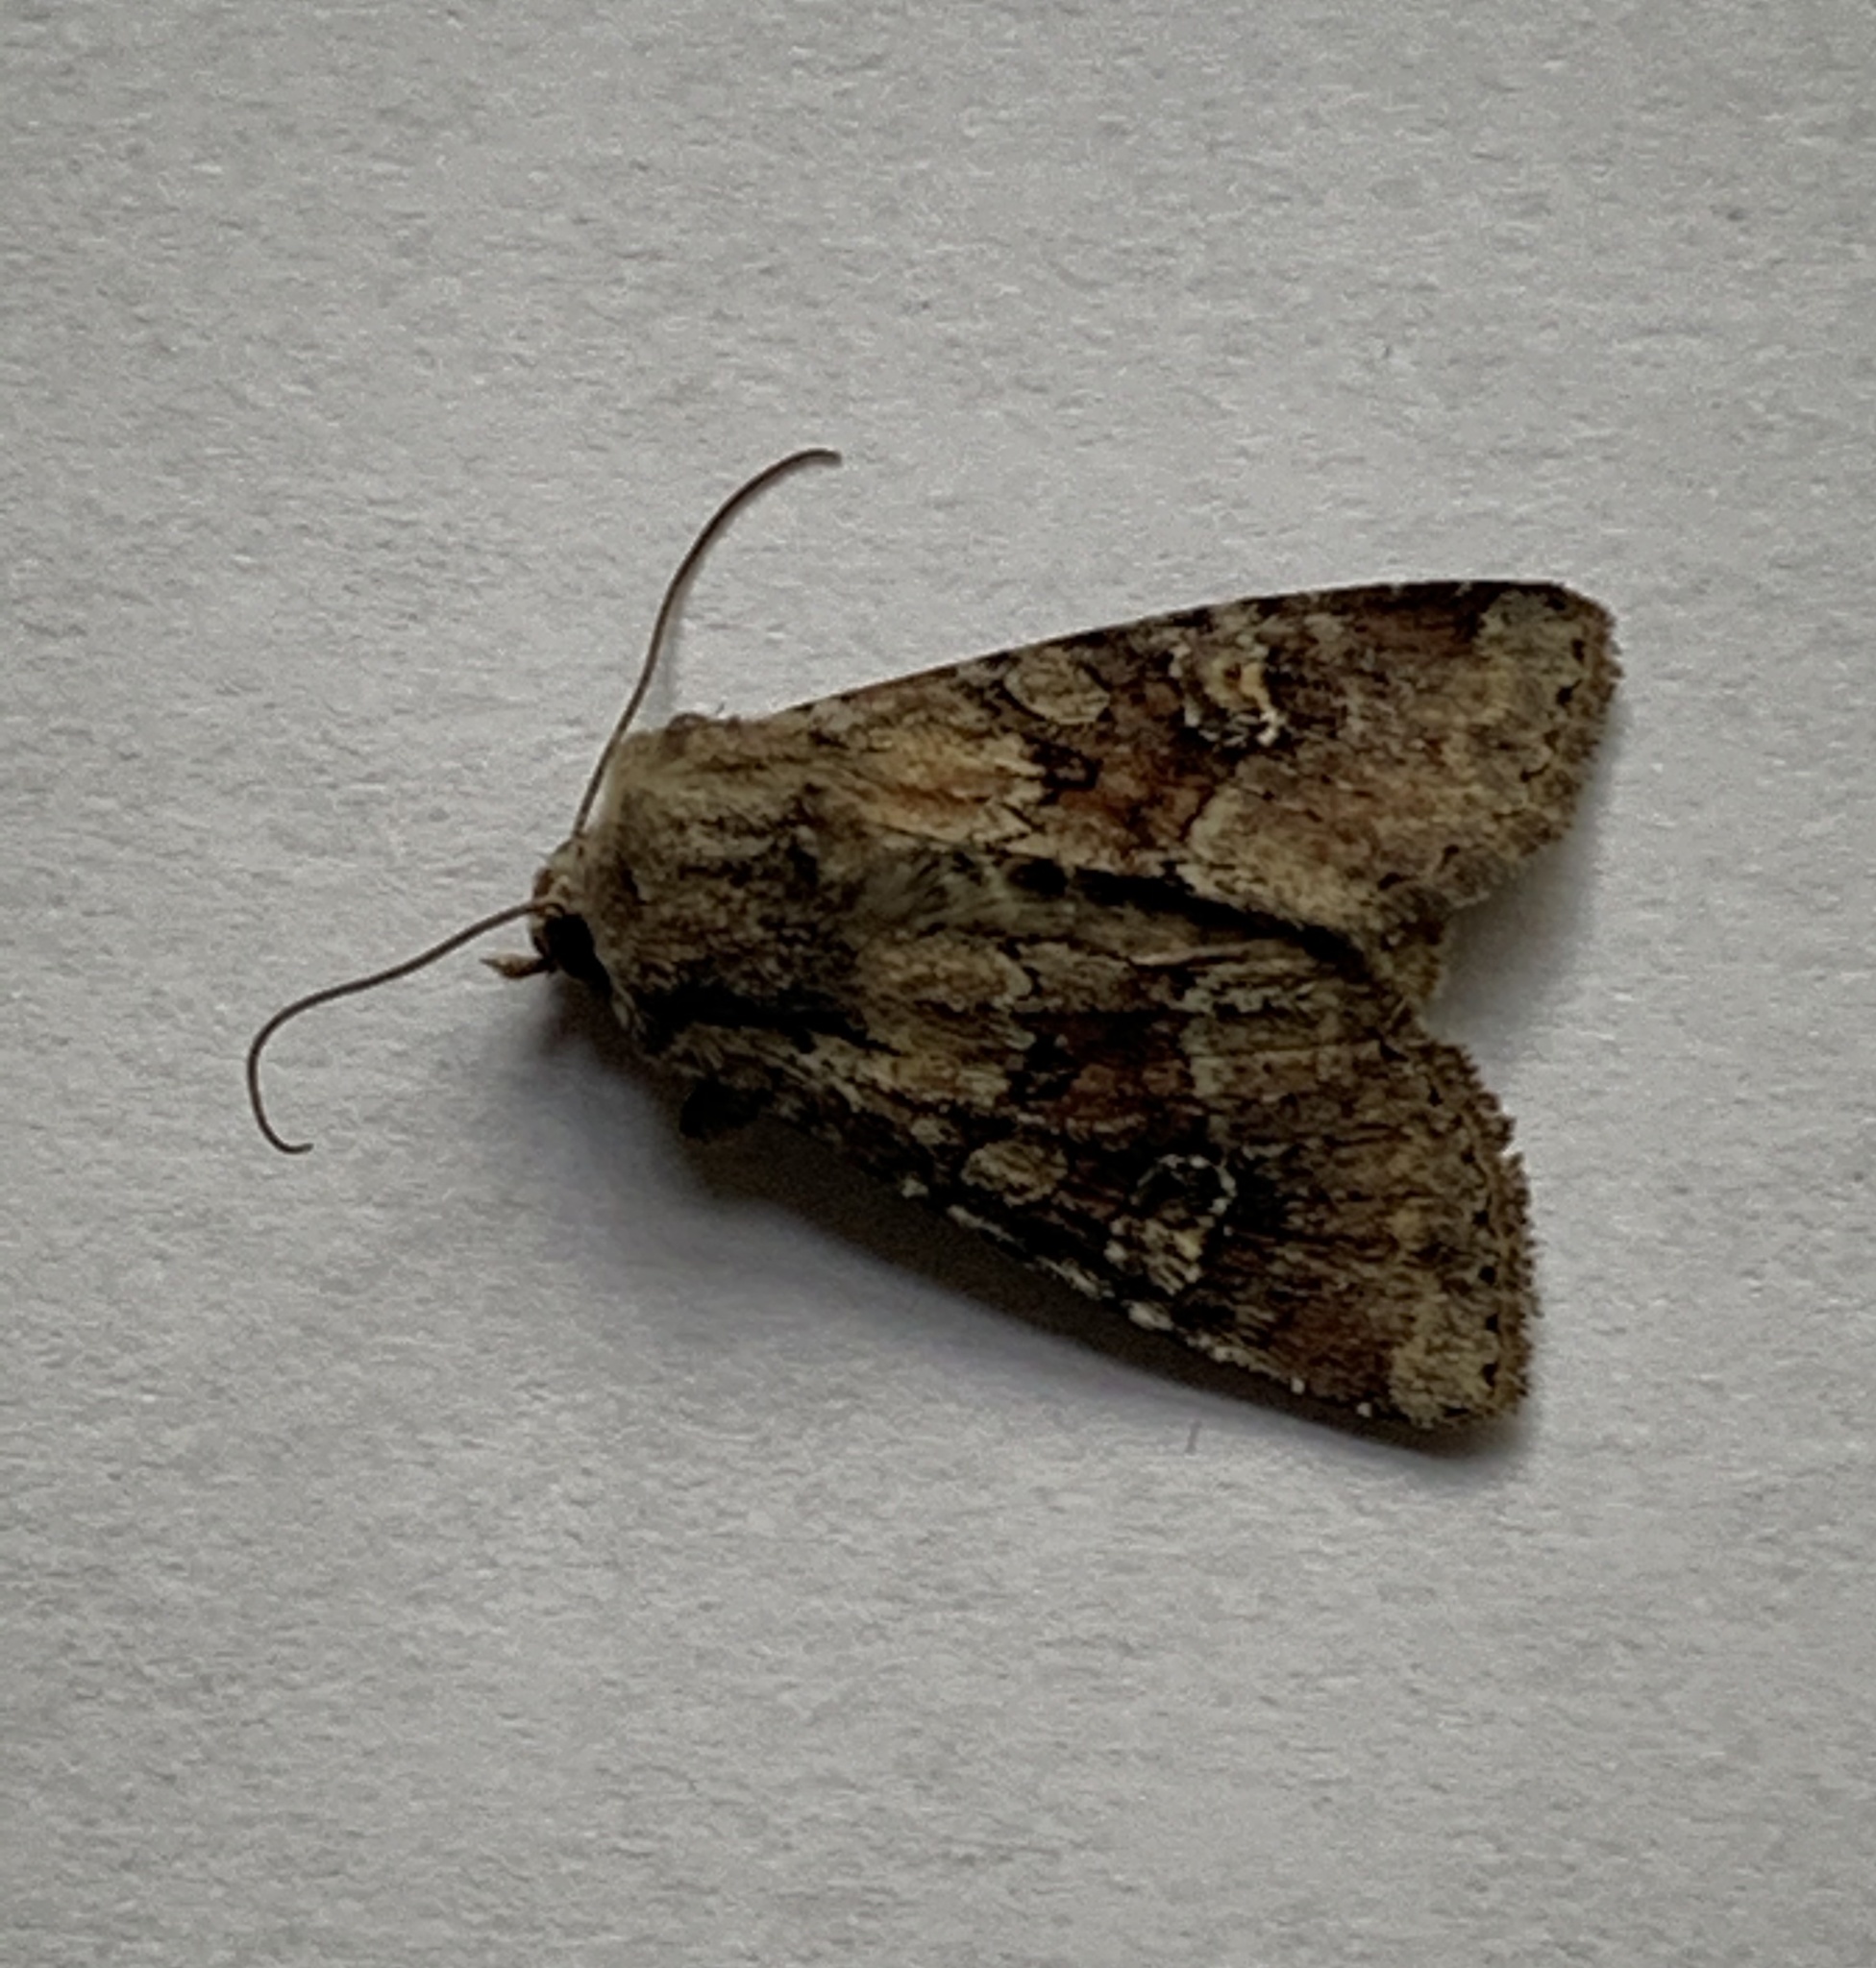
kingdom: Animalia
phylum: Arthropoda
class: Insecta
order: Lepidoptera
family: Noctuidae
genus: Apamea
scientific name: Apamea sordens
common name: Rustic shoulder-knot
